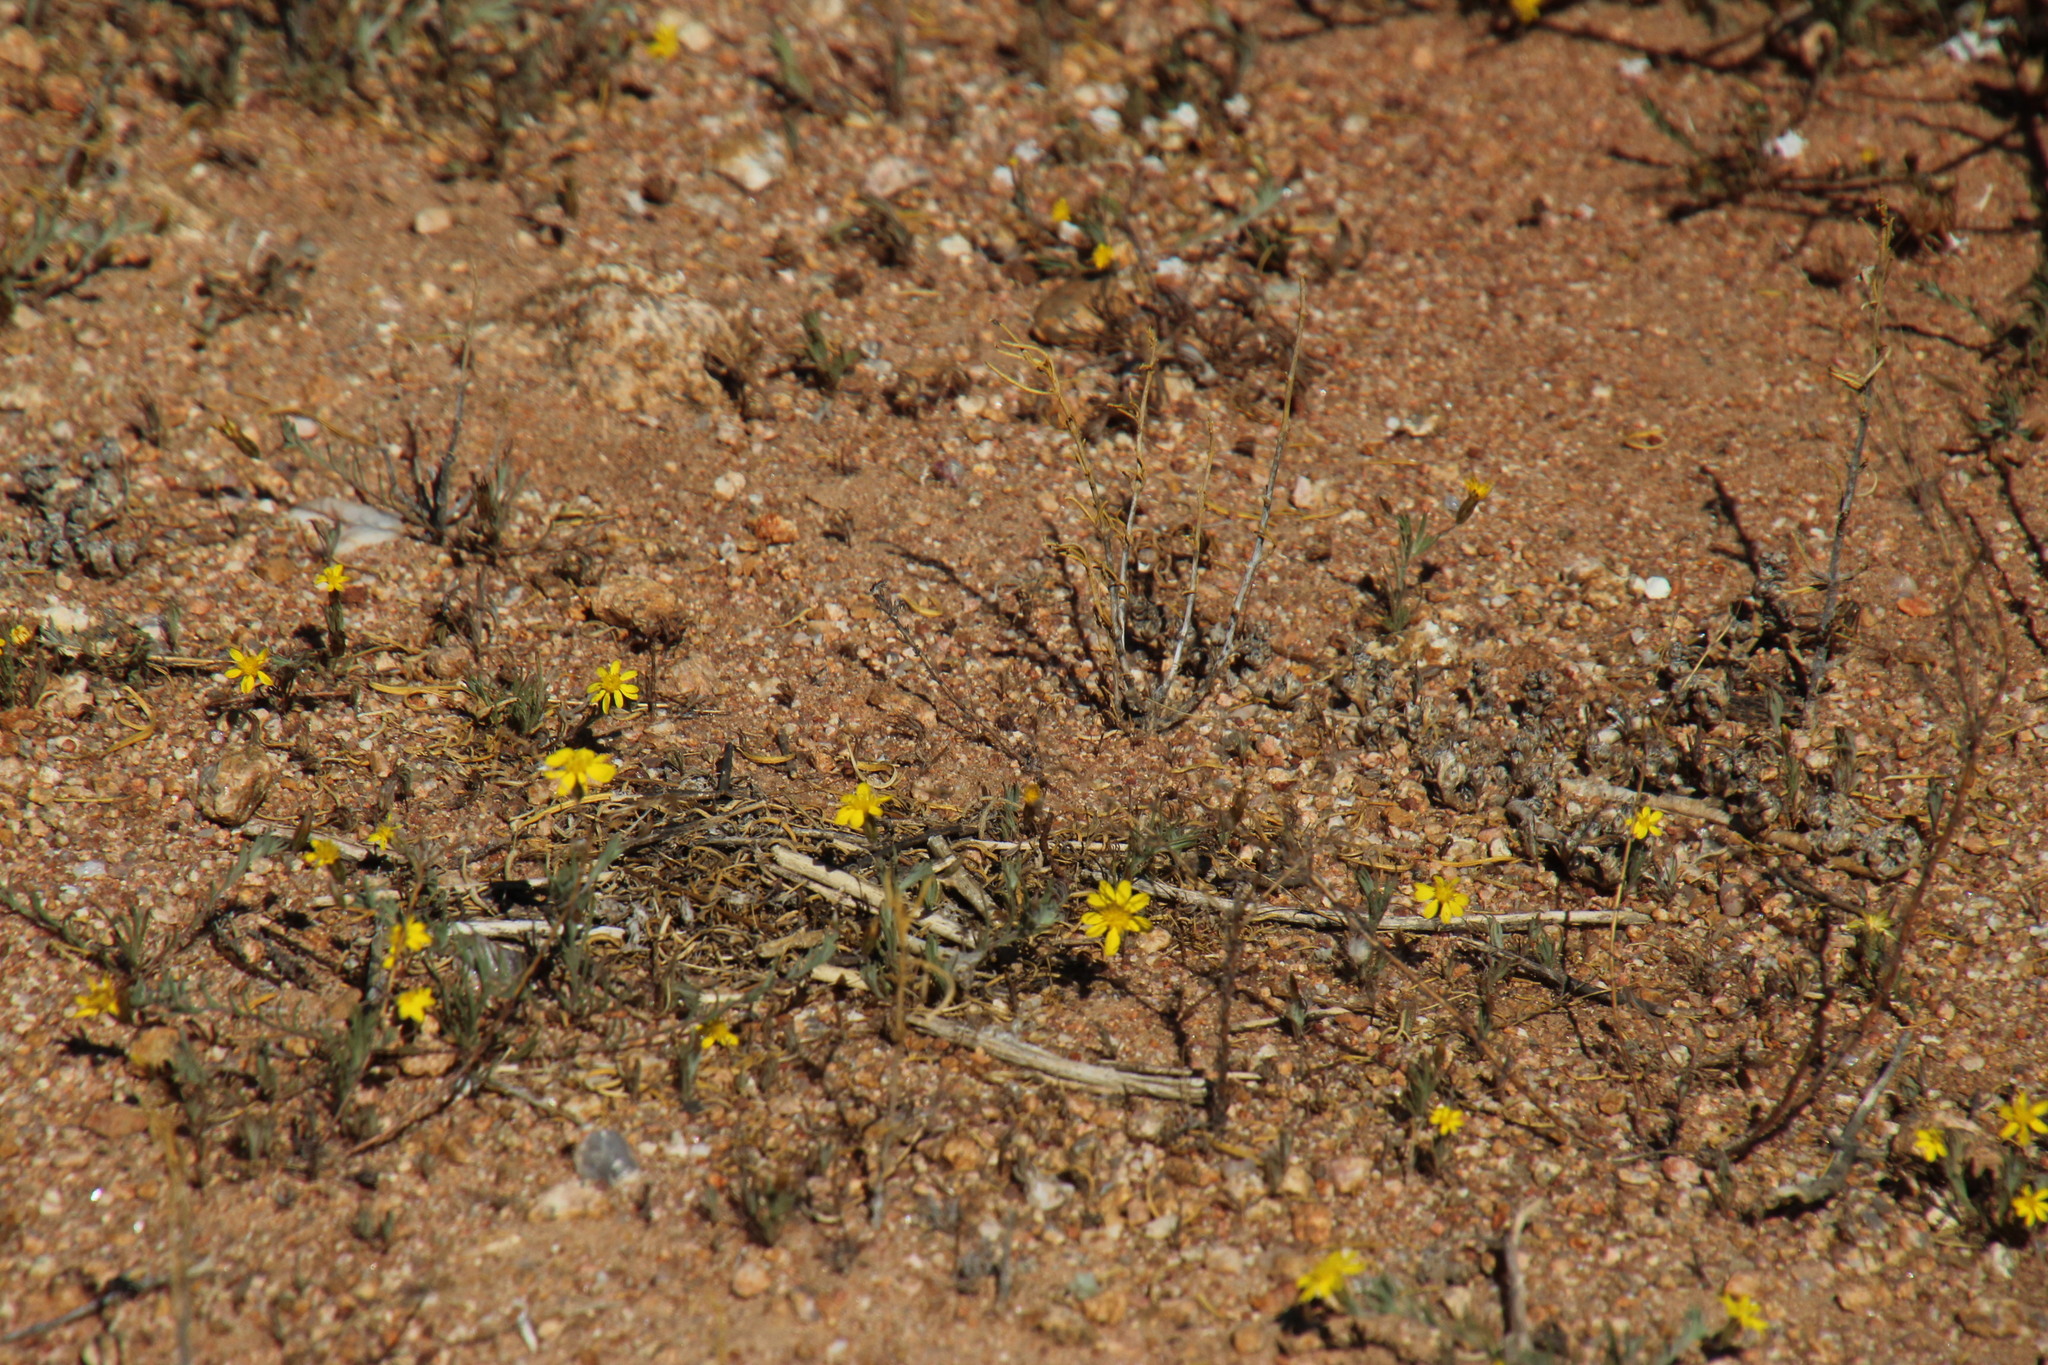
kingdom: Plantae
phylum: Tracheophyta
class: Magnoliopsida
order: Asterales
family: Asteraceae
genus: Leysera
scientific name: Leysera tenella
